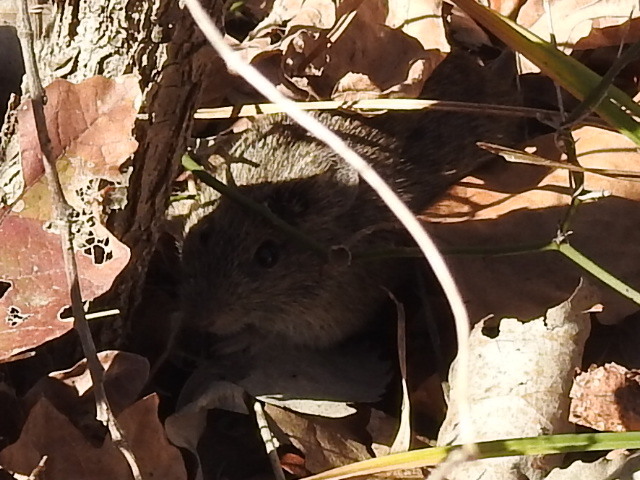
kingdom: Animalia
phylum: Chordata
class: Mammalia
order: Rodentia
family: Cricetidae
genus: Sigmodon
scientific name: Sigmodon hispidus
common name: Hispid cotton rat
